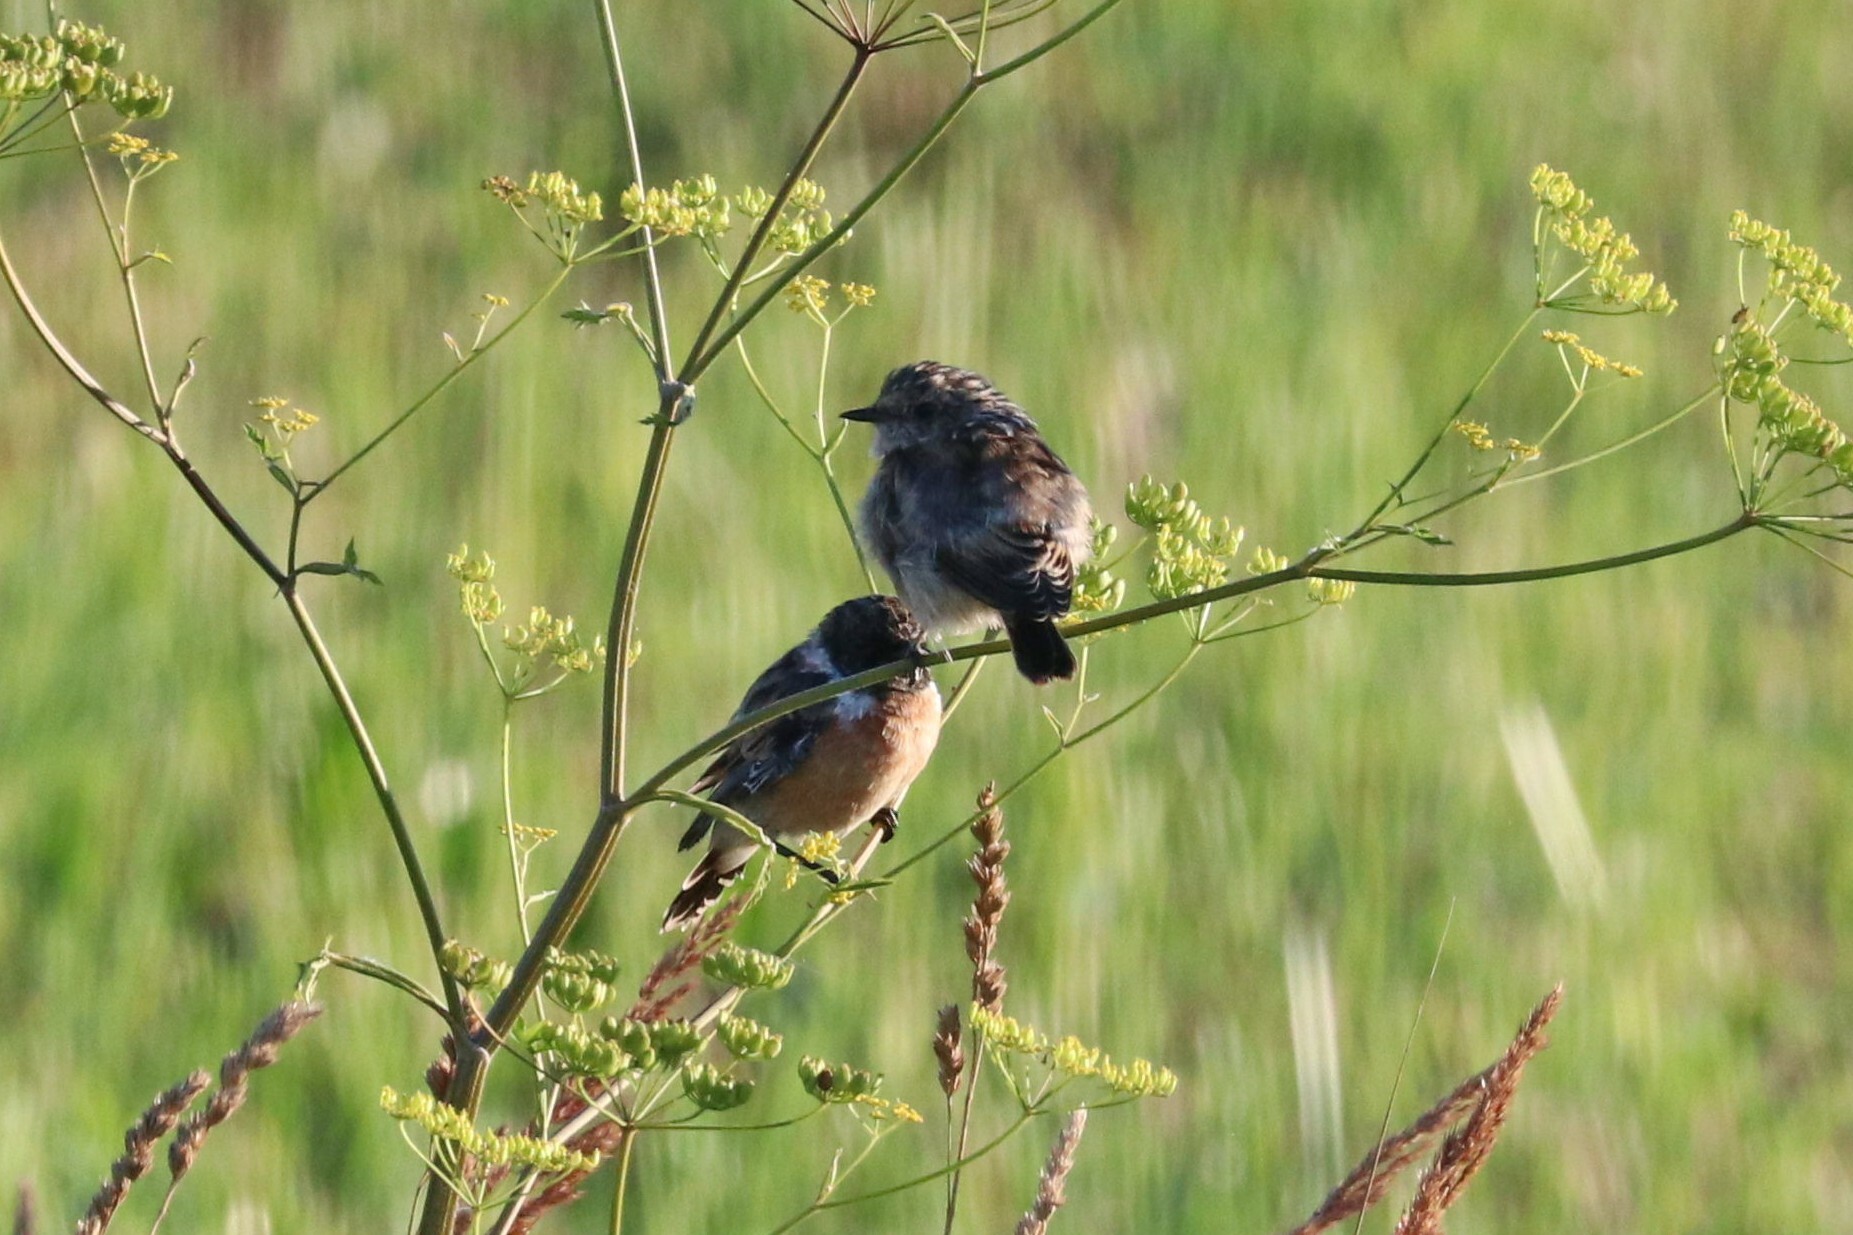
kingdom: Animalia
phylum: Chordata
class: Aves
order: Passeriformes
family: Muscicapidae
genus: Saxicola
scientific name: Saxicola maurus
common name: Siberian stonechat
